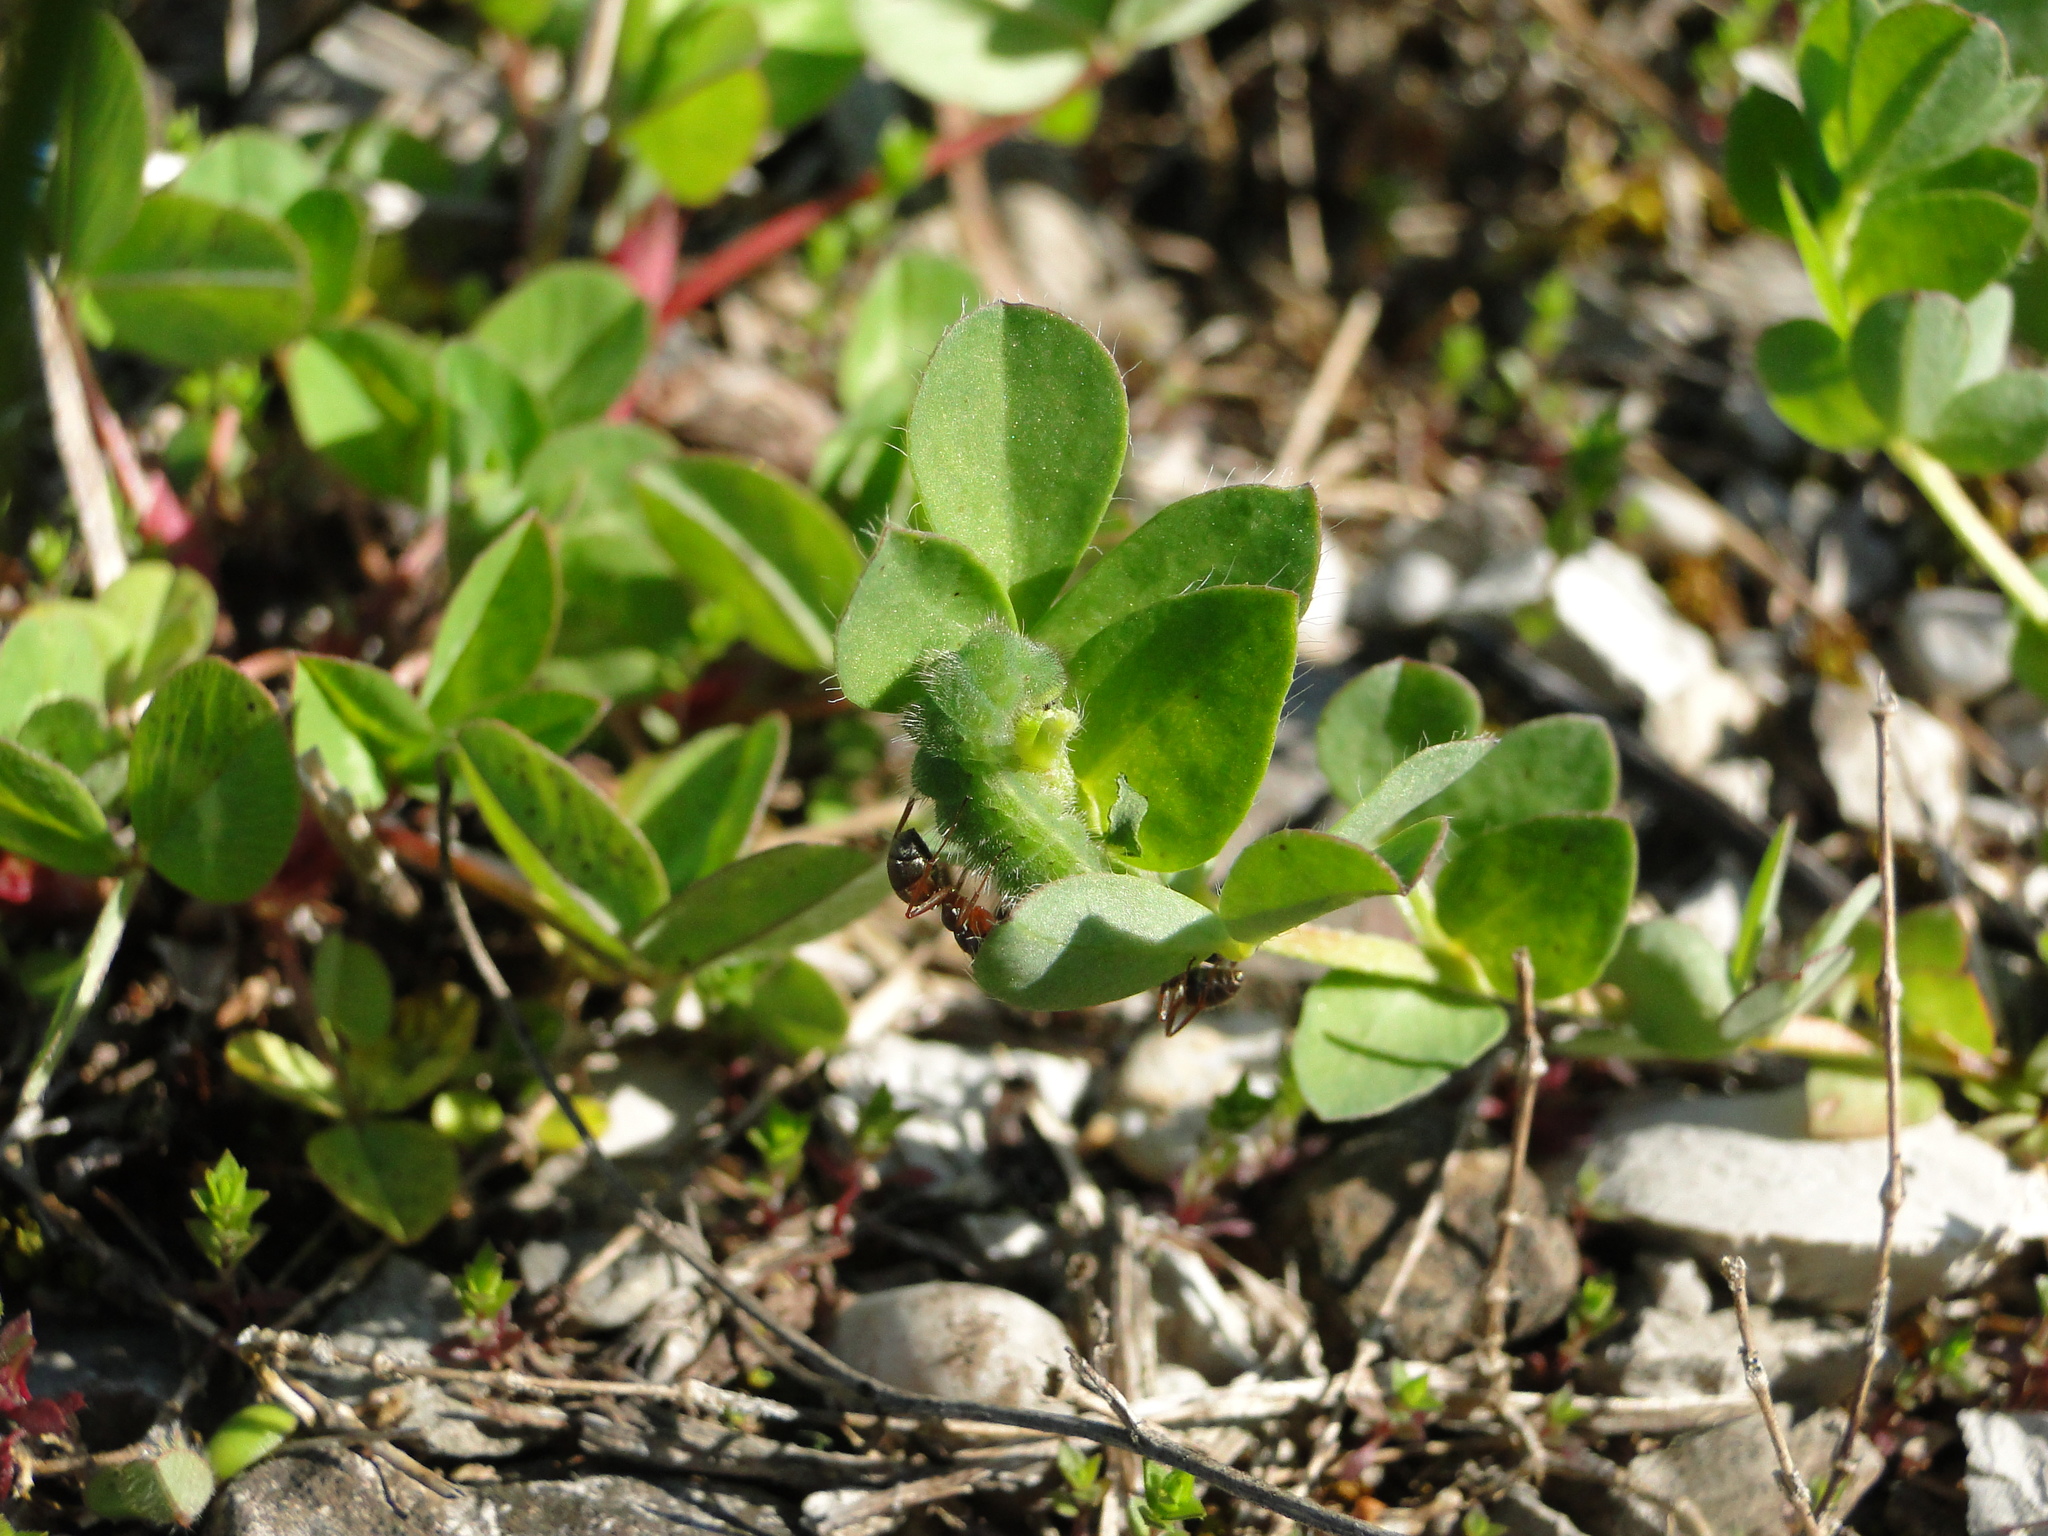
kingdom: Animalia
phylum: Arthropoda
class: Insecta
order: Lepidoptera
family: Lycaenidae
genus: Polyommatus
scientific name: Polyommatus icarus
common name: Common blue
